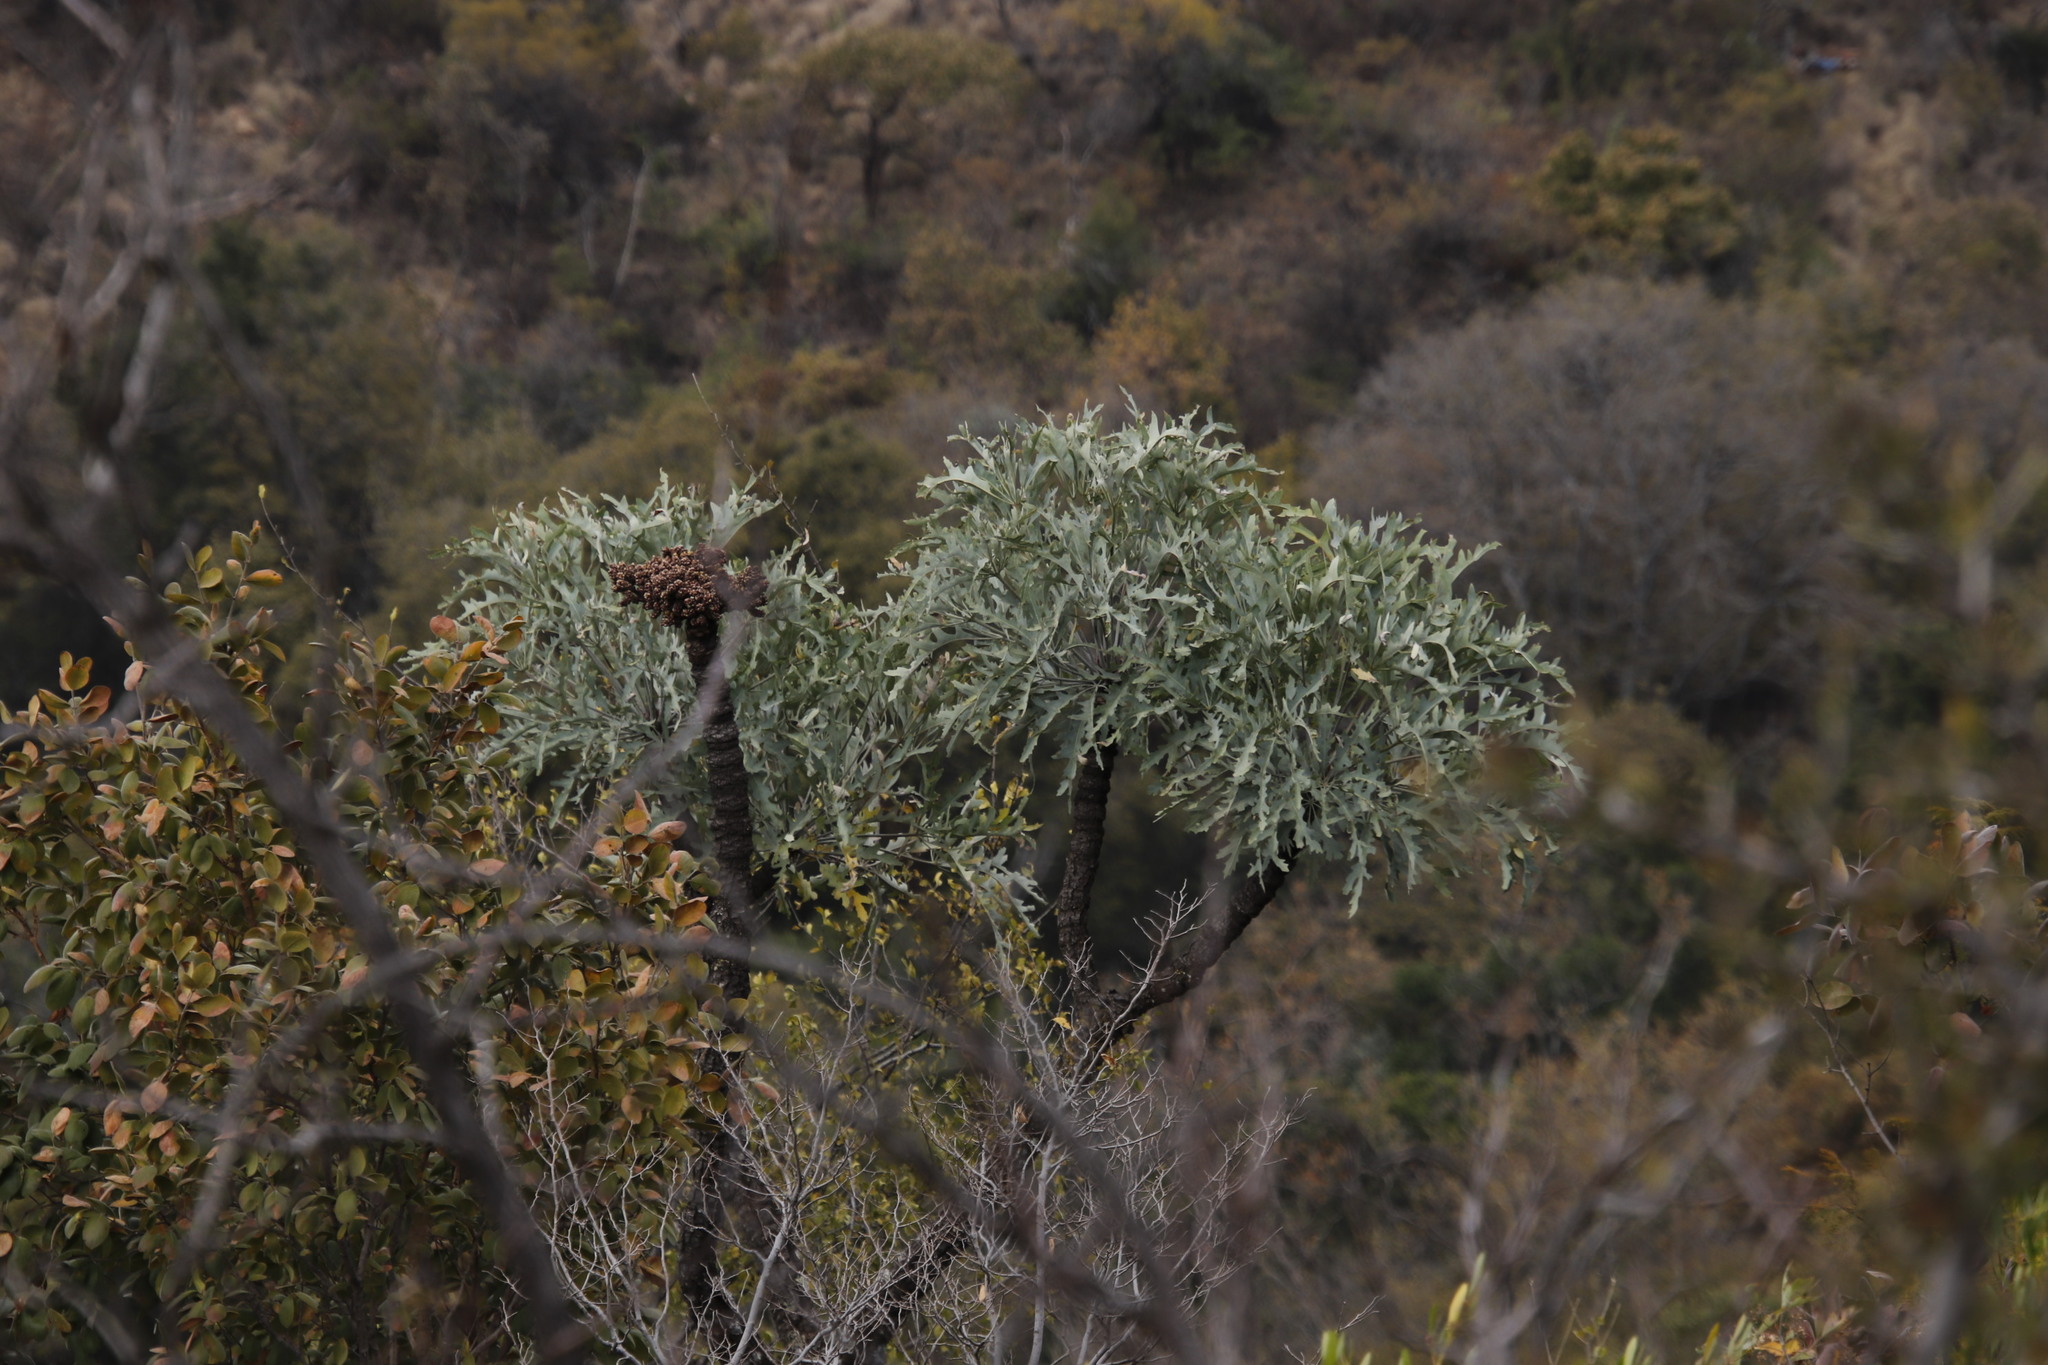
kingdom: Plantae
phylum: Tracheophyta
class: Magnoliopsida
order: Apiales
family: Araliaceae
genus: Cussonia
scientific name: Cussonia paniculata
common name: Cabbagetree
